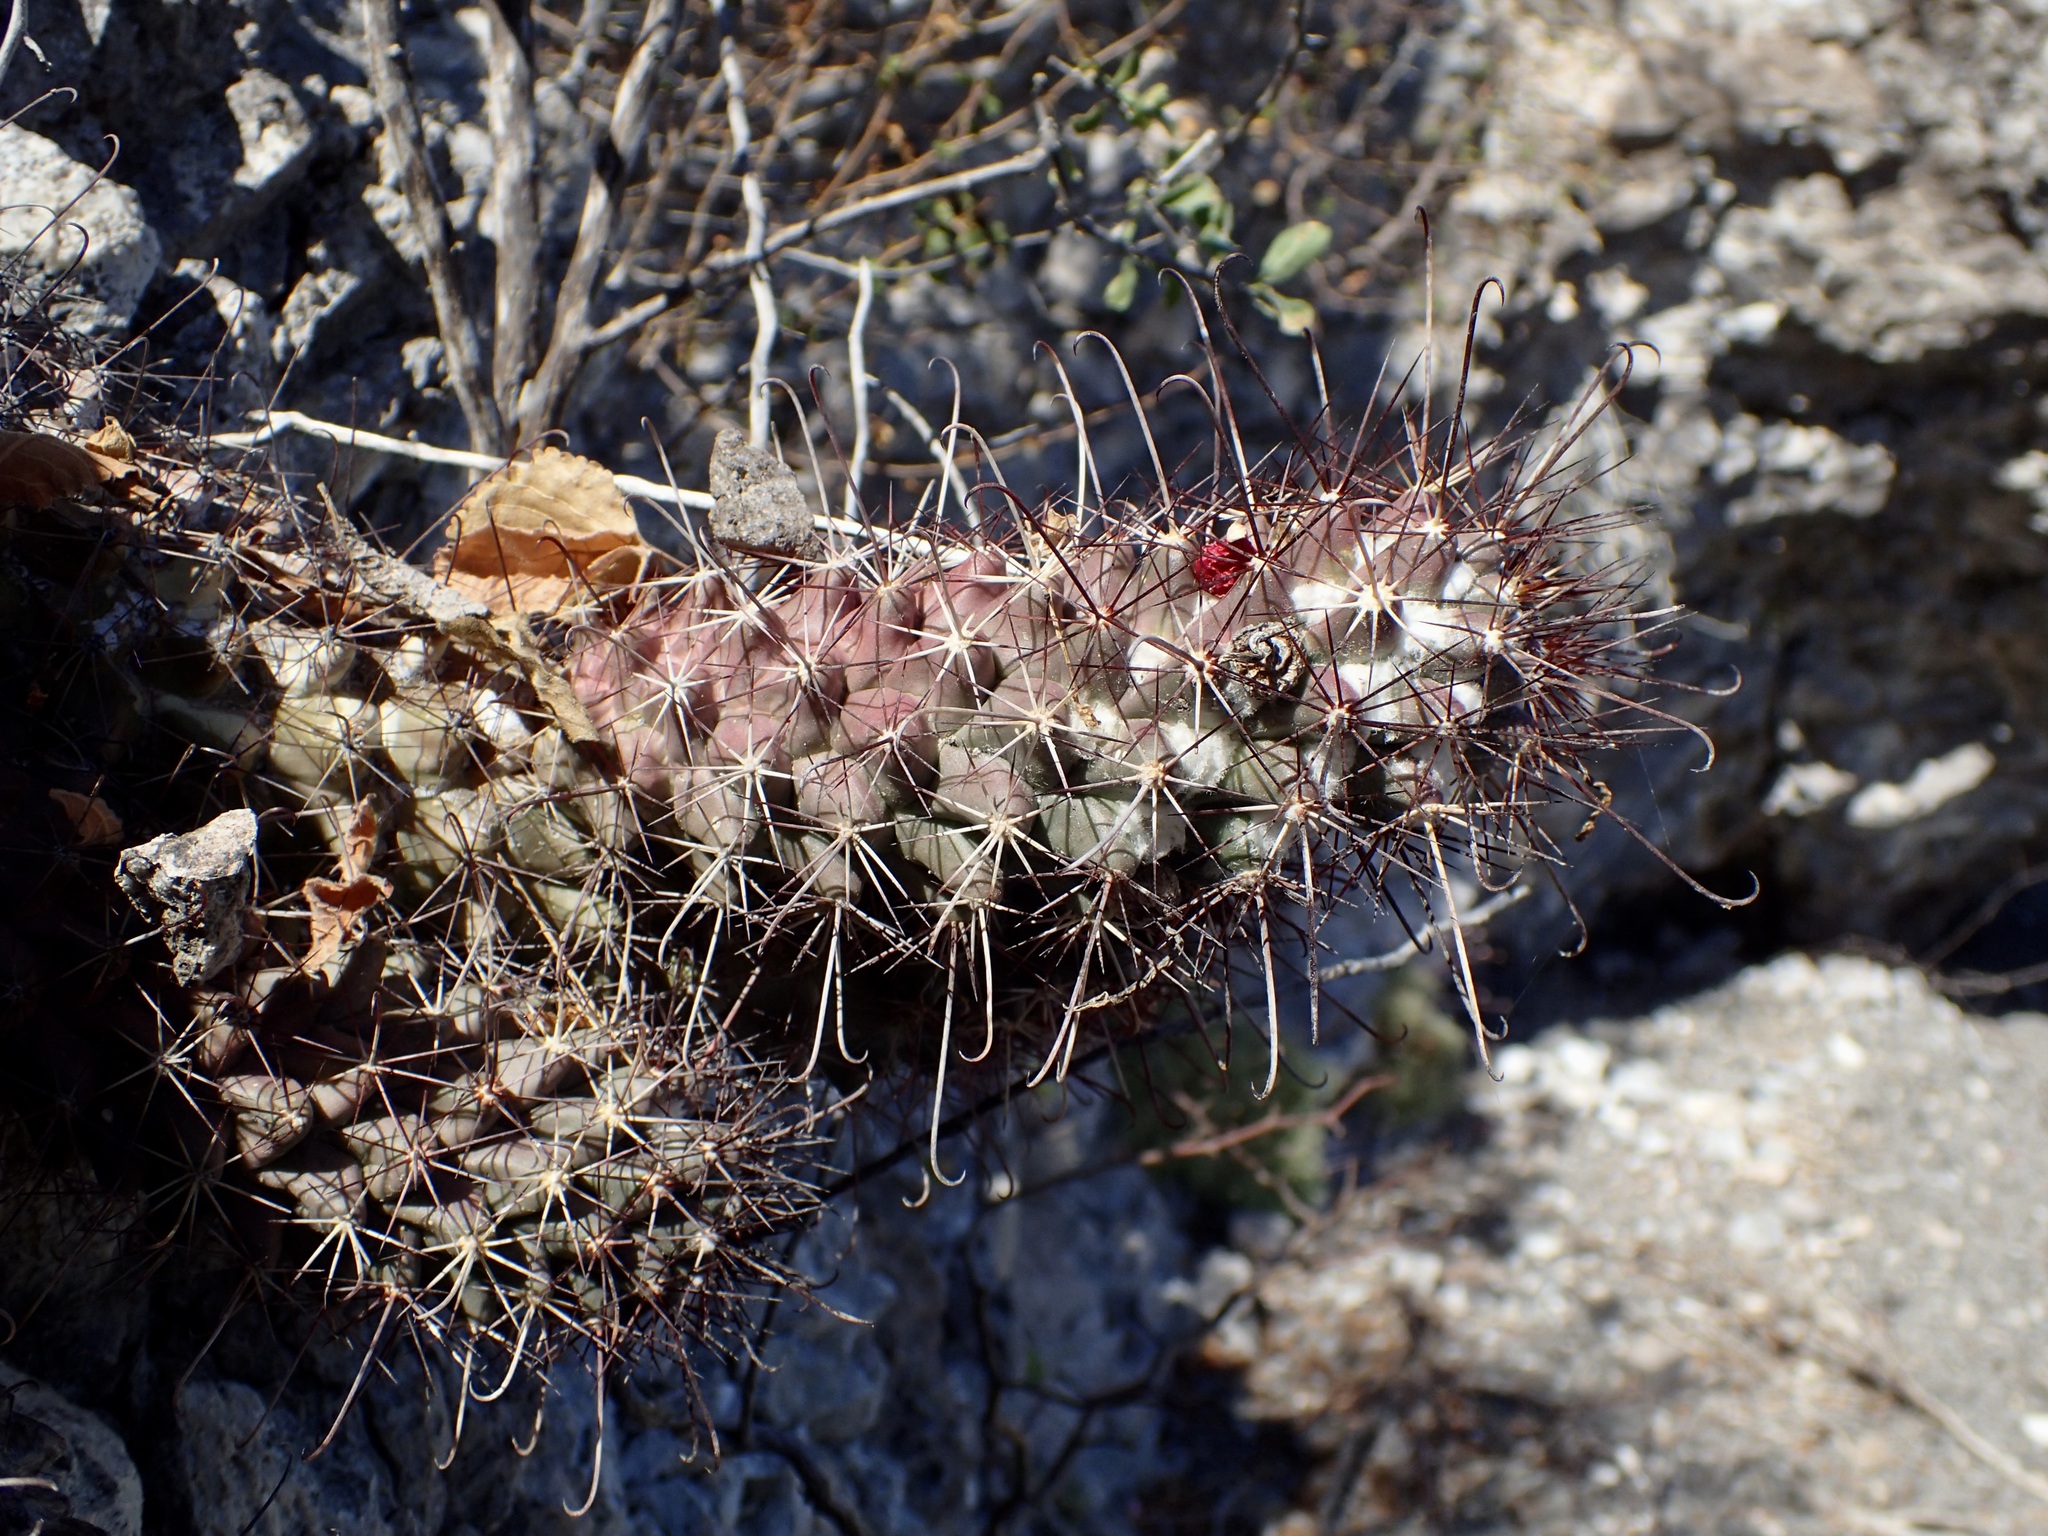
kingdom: Plantae
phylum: Tracheophyta
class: Magnoliopsida
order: Caryophyllales
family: Cactaceae
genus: Cochemiea
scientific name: Cochemiea poselgeri
